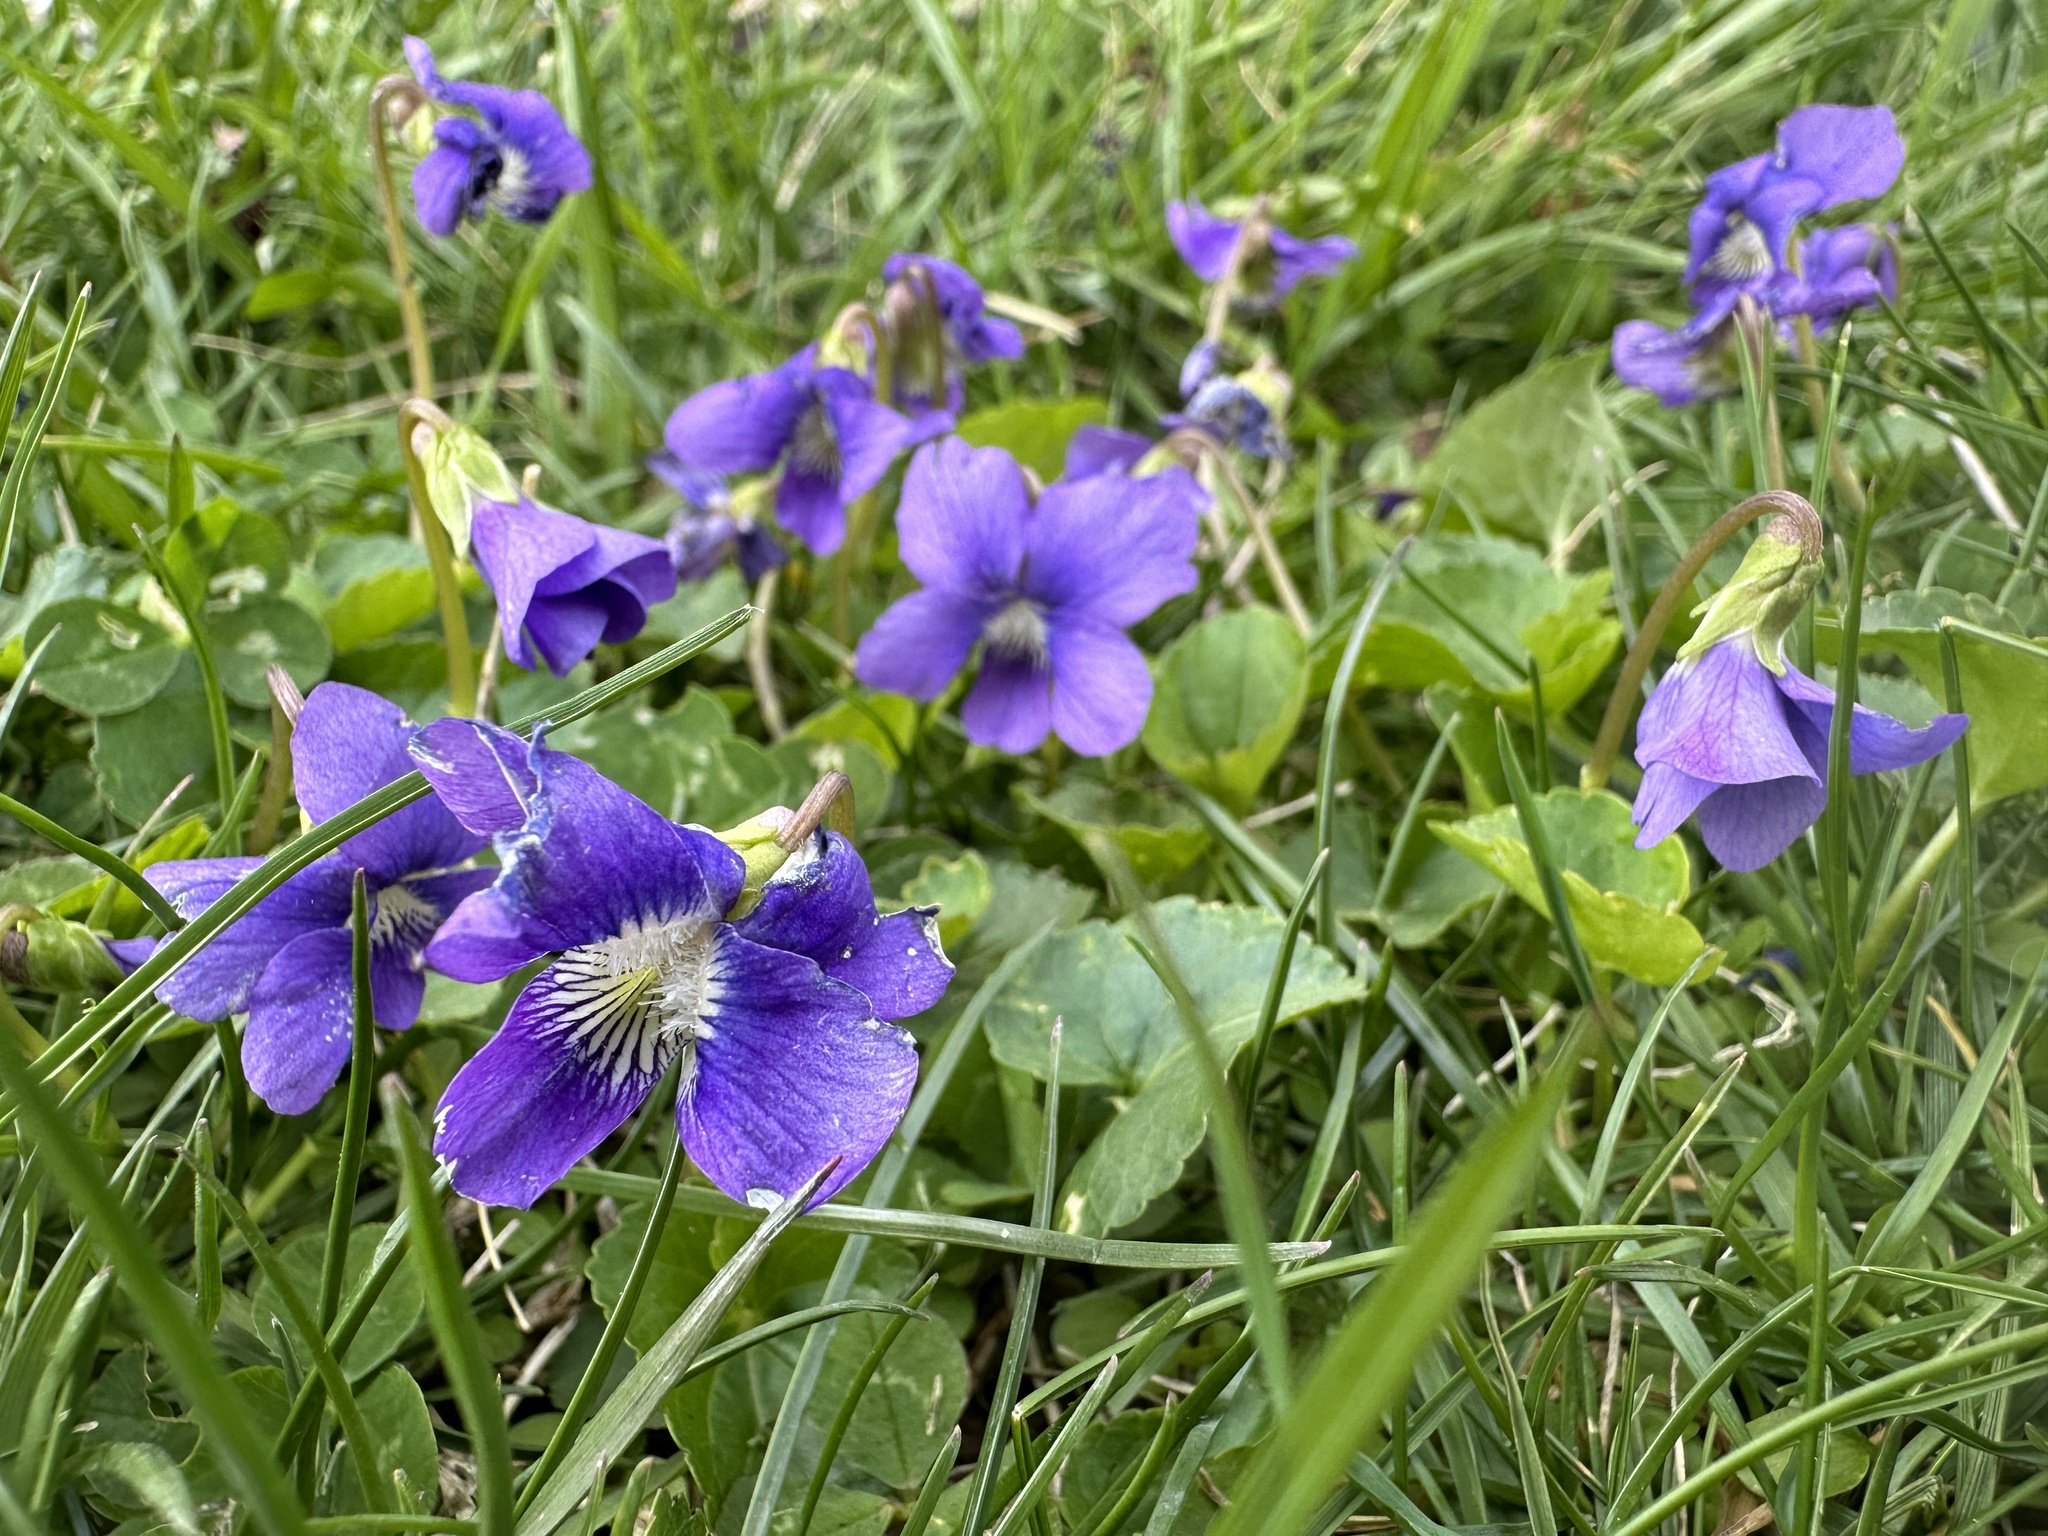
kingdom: Plantae
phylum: Tracheophyta
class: Magnoliopsida
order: Malpighiales
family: Violaceae
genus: Viola
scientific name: Viola communis
